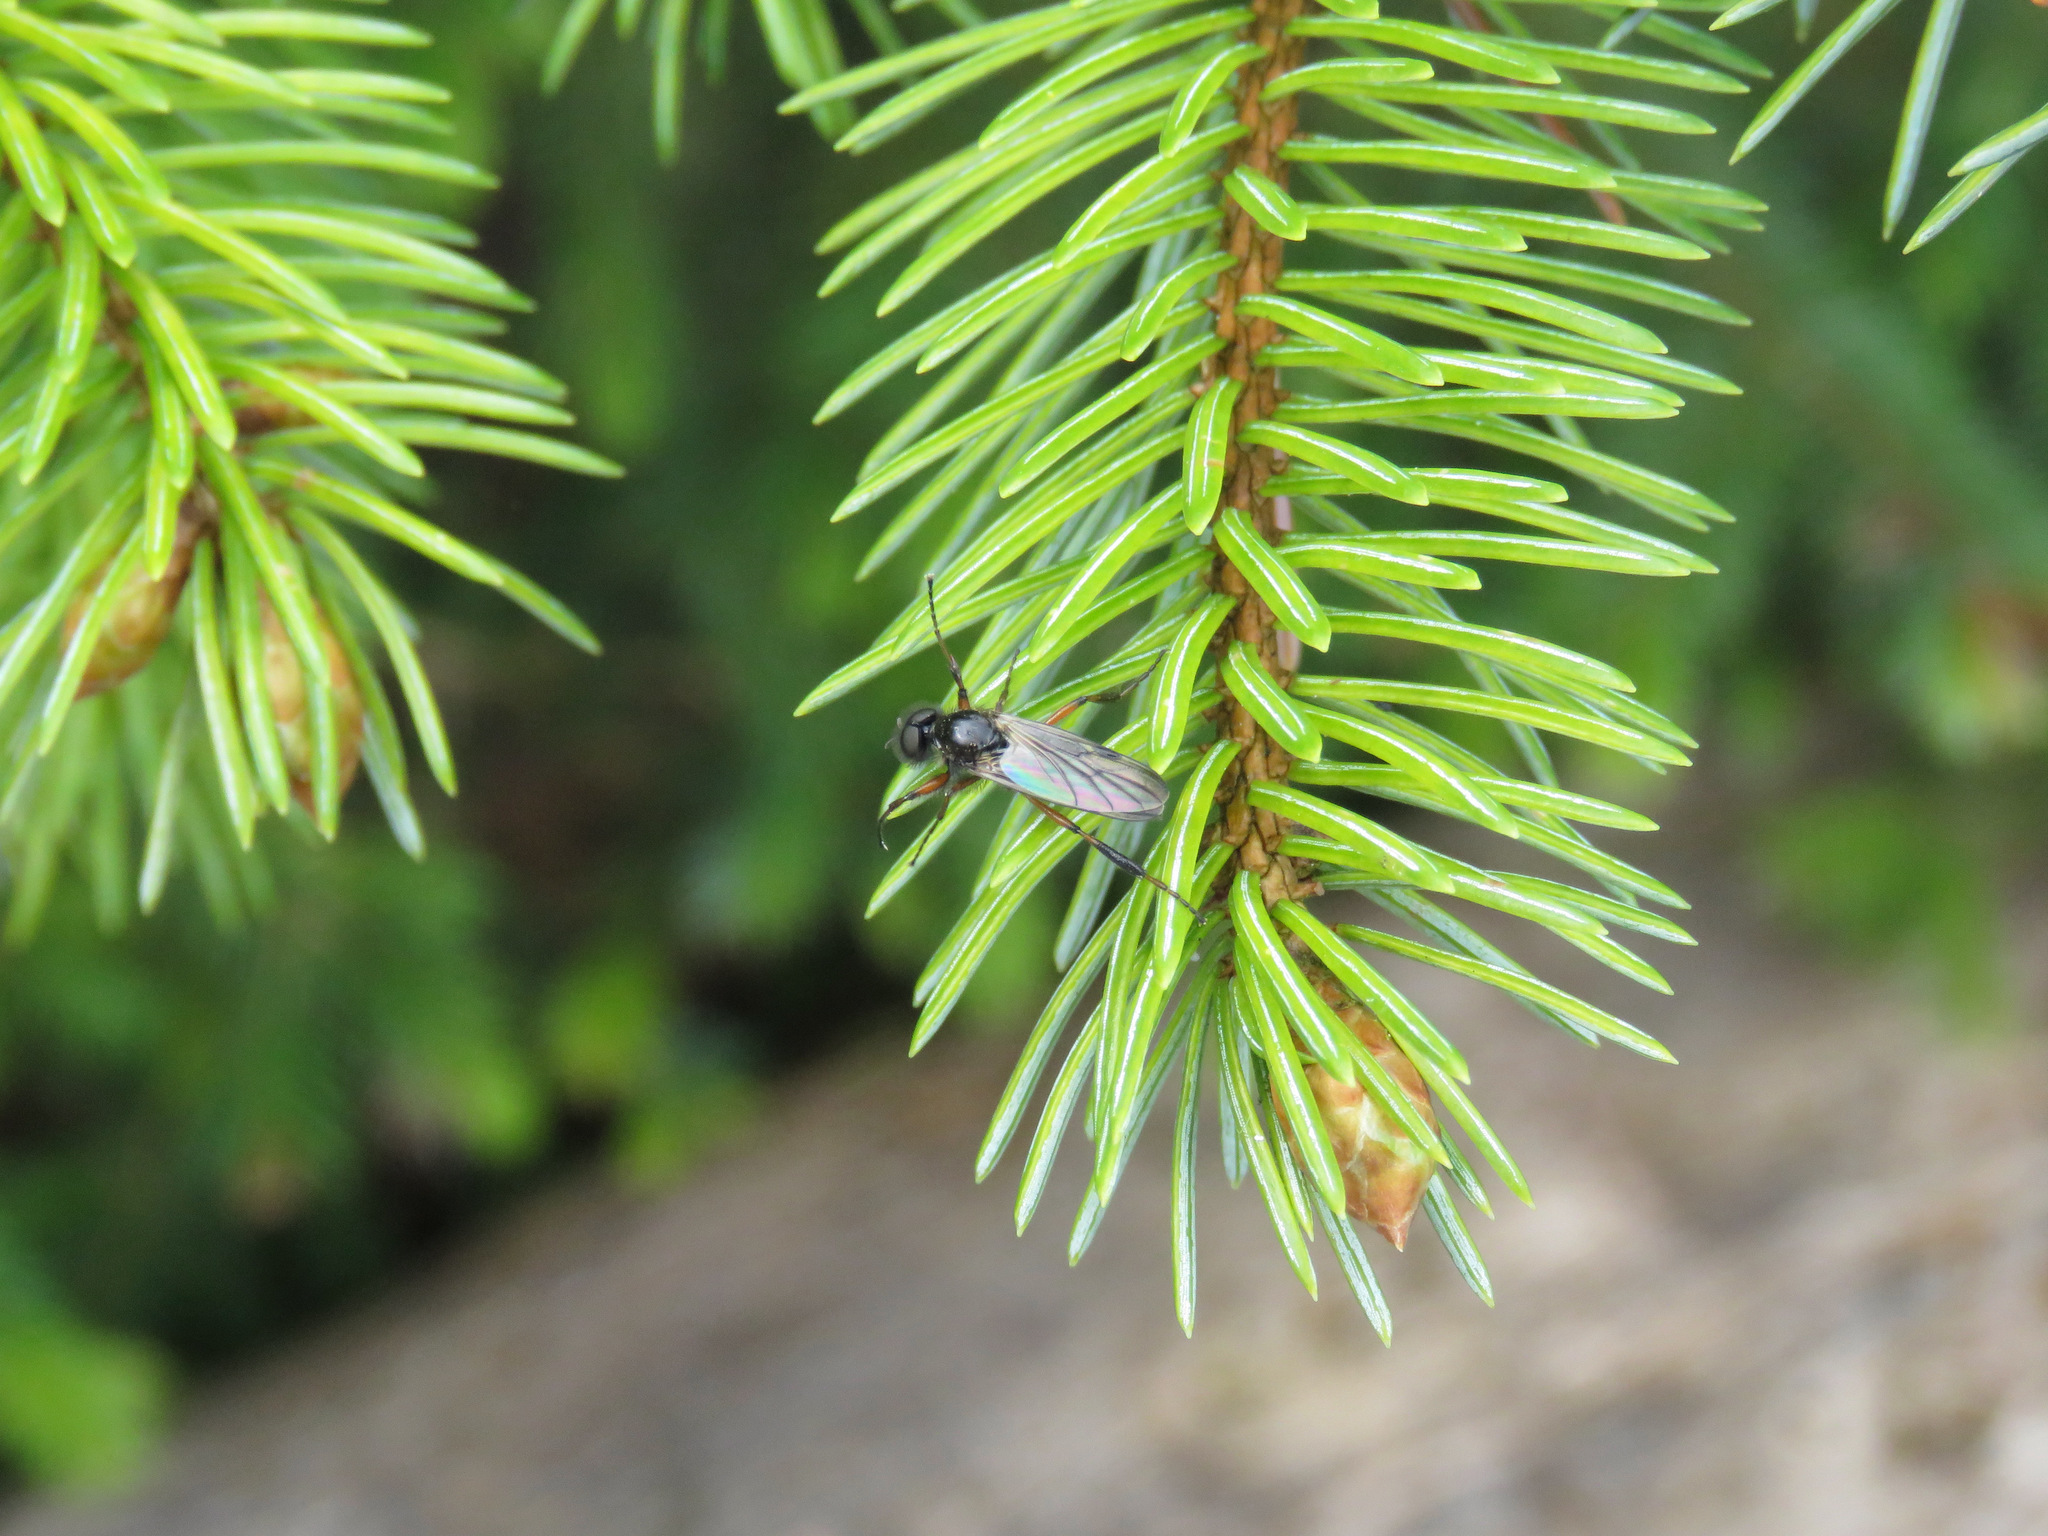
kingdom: Animalia
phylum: Arthropoda
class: Insecta
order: Diptera
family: Bibionidae
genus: Bibio
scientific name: Bibio
